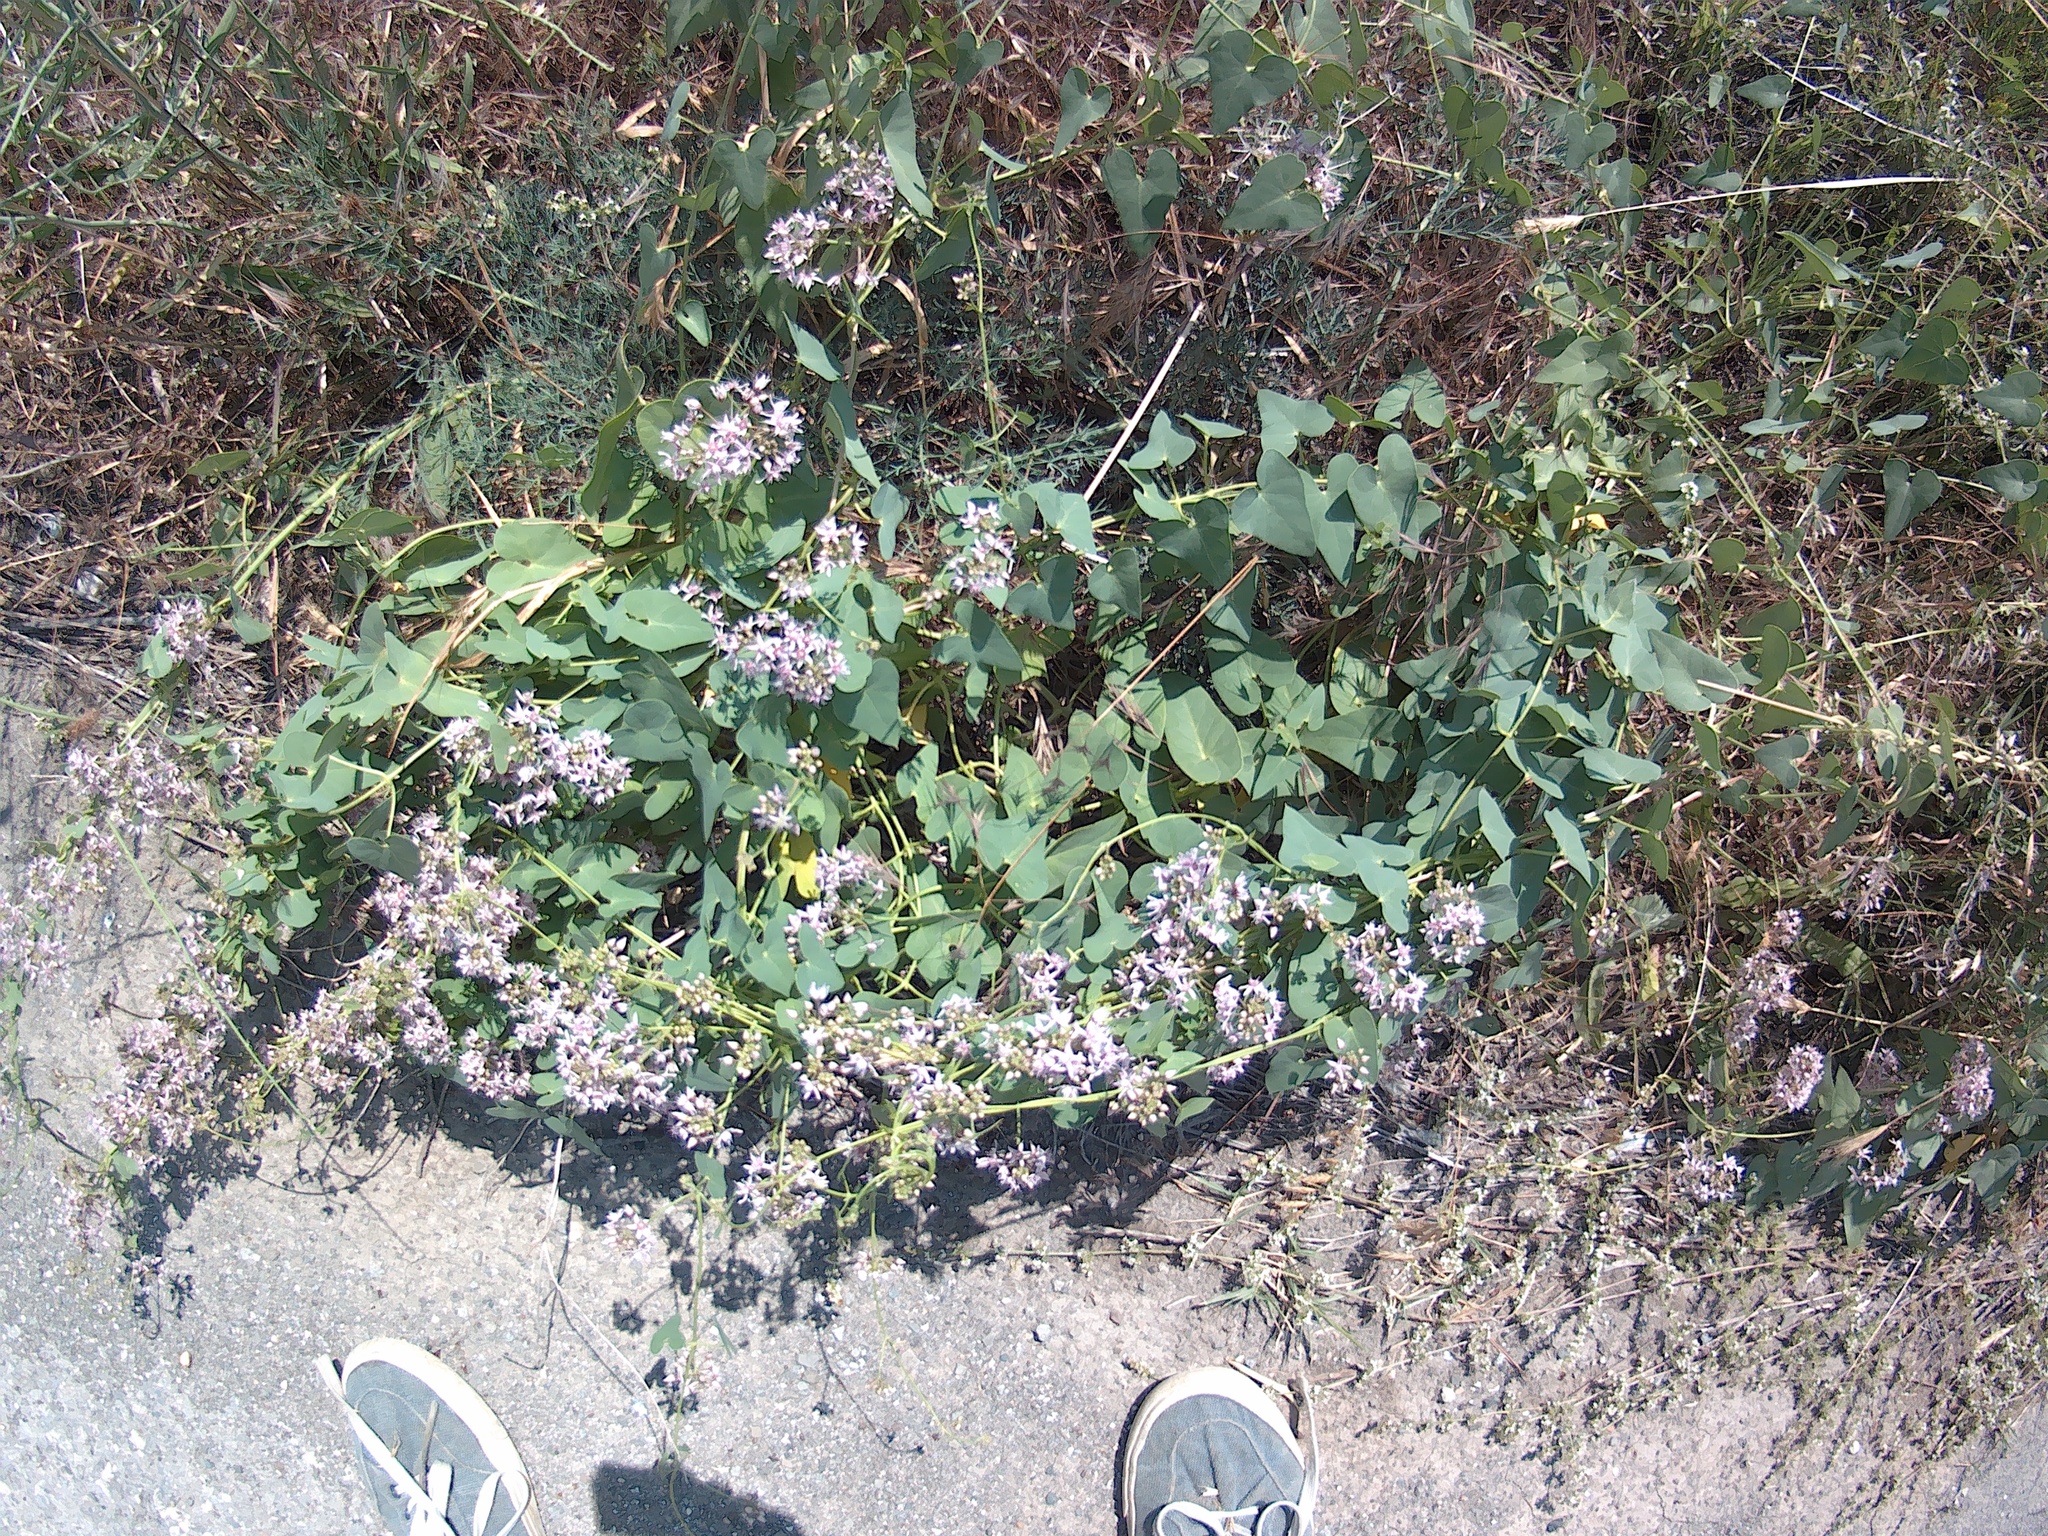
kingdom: Plantae
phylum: Tracheophyta
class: Magnoliopsida
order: Gentianales
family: Apocynaceae
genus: Cynanchum
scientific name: Cynanchum acutum
